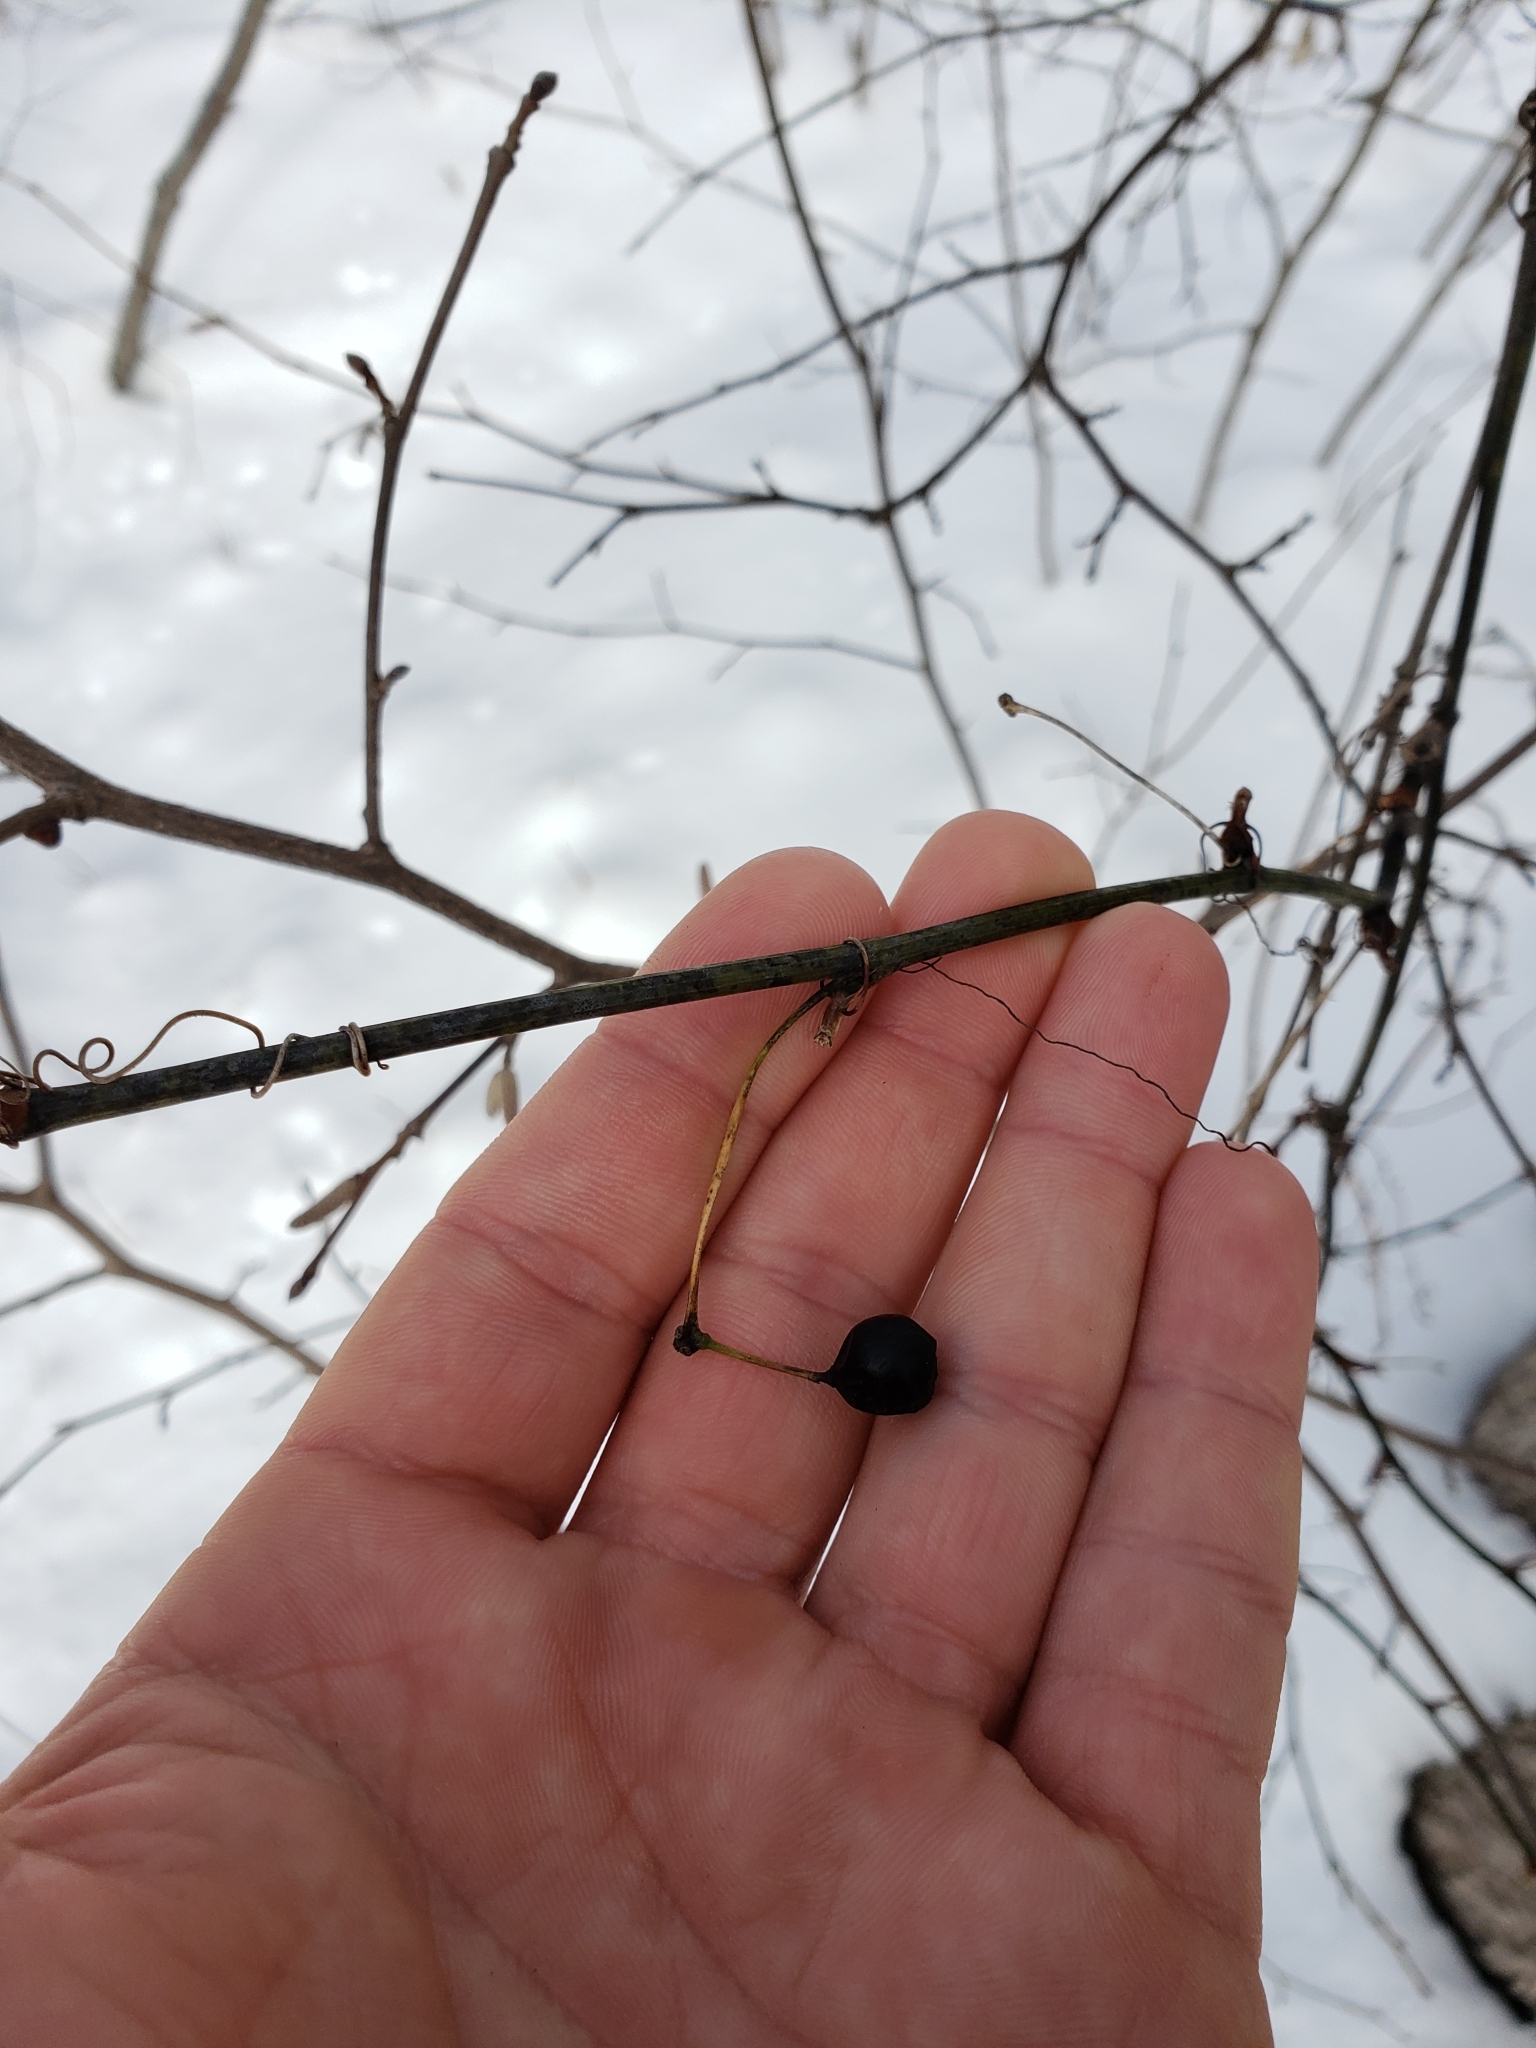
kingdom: Plantae
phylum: Tracheophyta
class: Liliopsida
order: Liliales
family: Smilacaceae
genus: Smilax
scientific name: Smilax tamnoides
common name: Hellfetter
